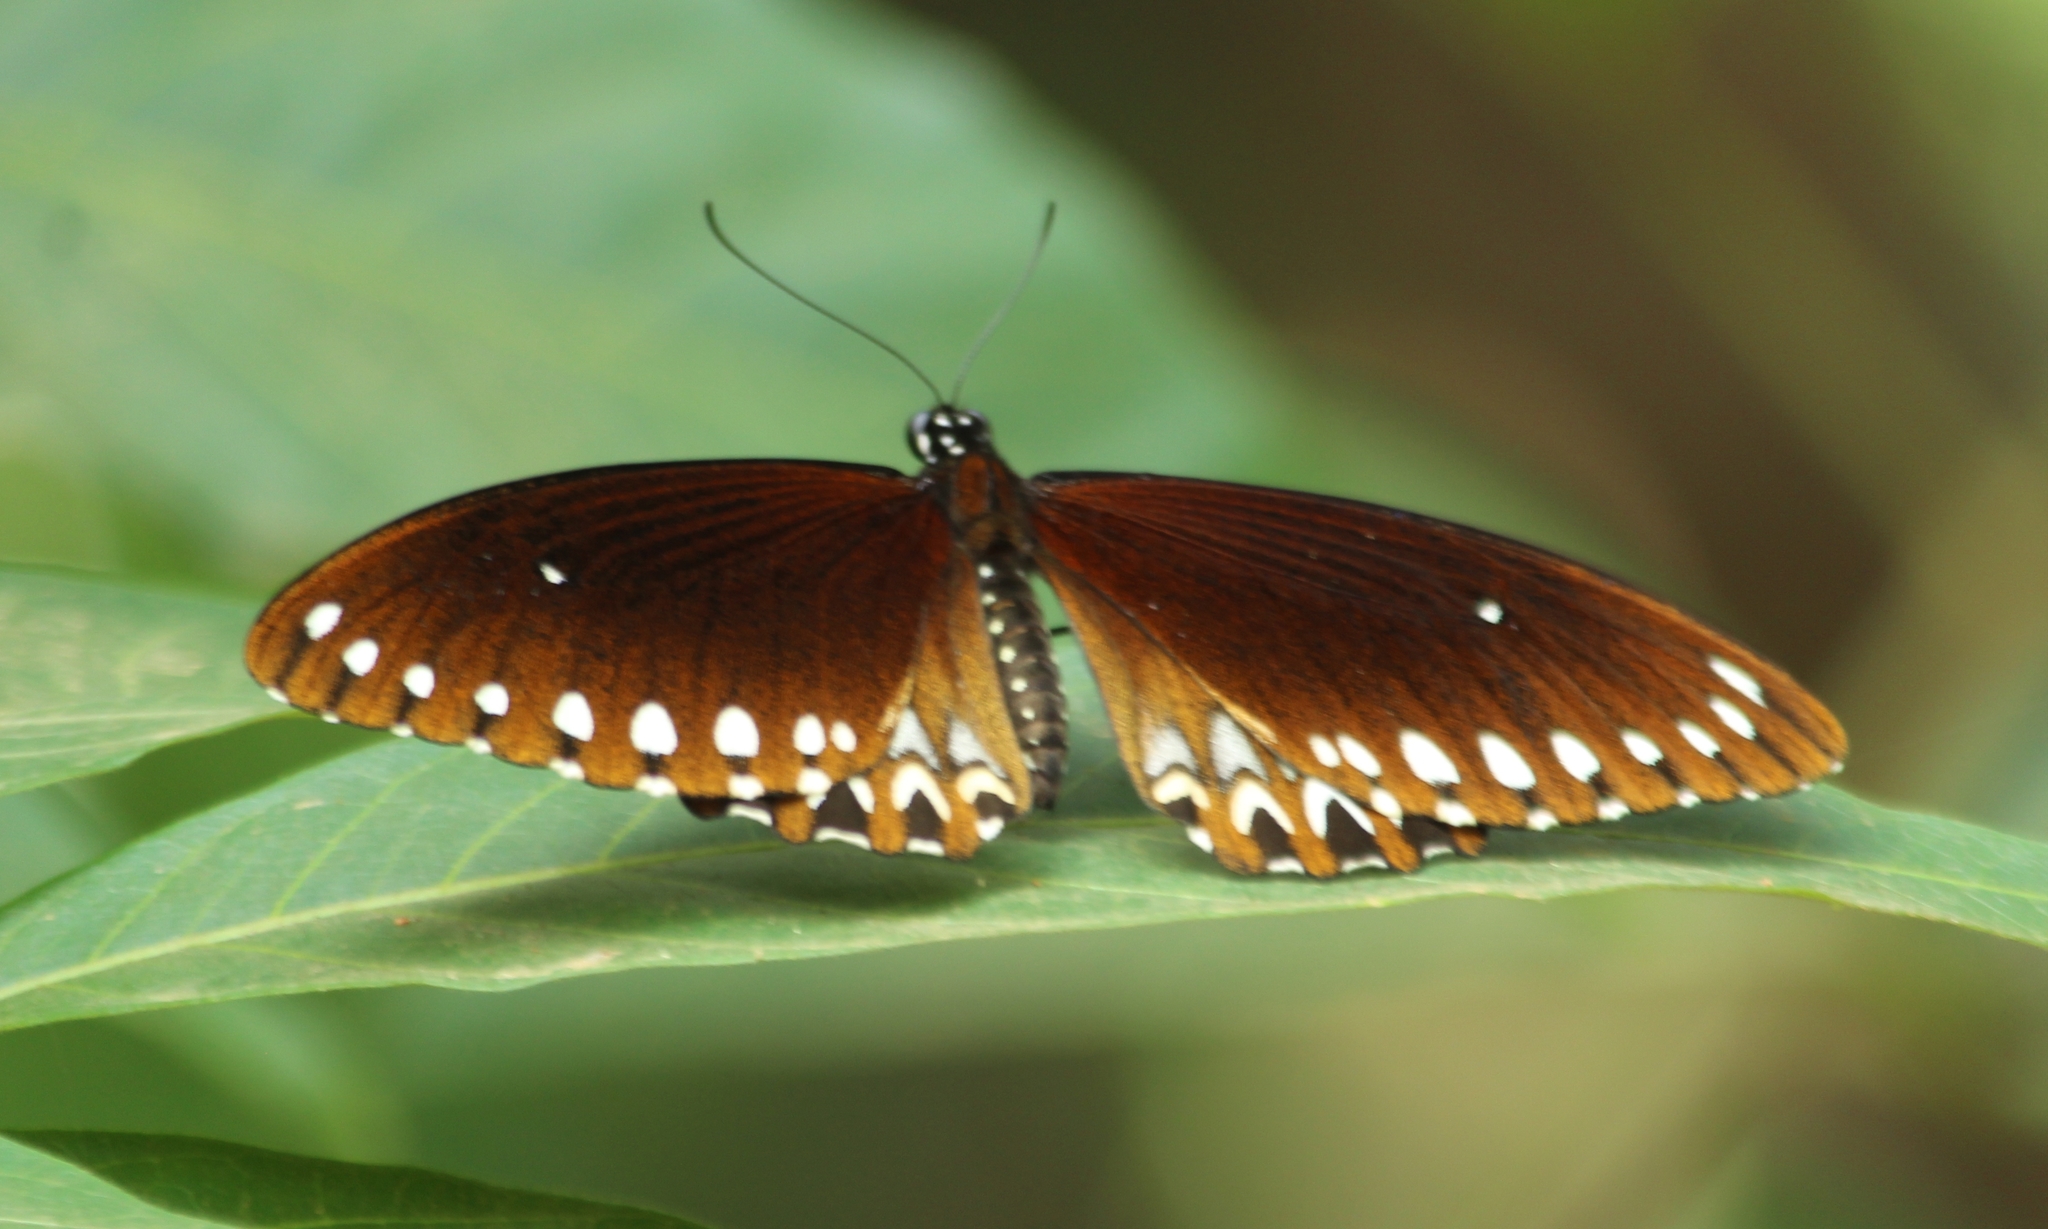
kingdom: Animalia
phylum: Arthropoda
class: Insecta
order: Lepidoptera
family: Papilionidae
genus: Papilio
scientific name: Papilio dravidarum
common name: Malabar raven
